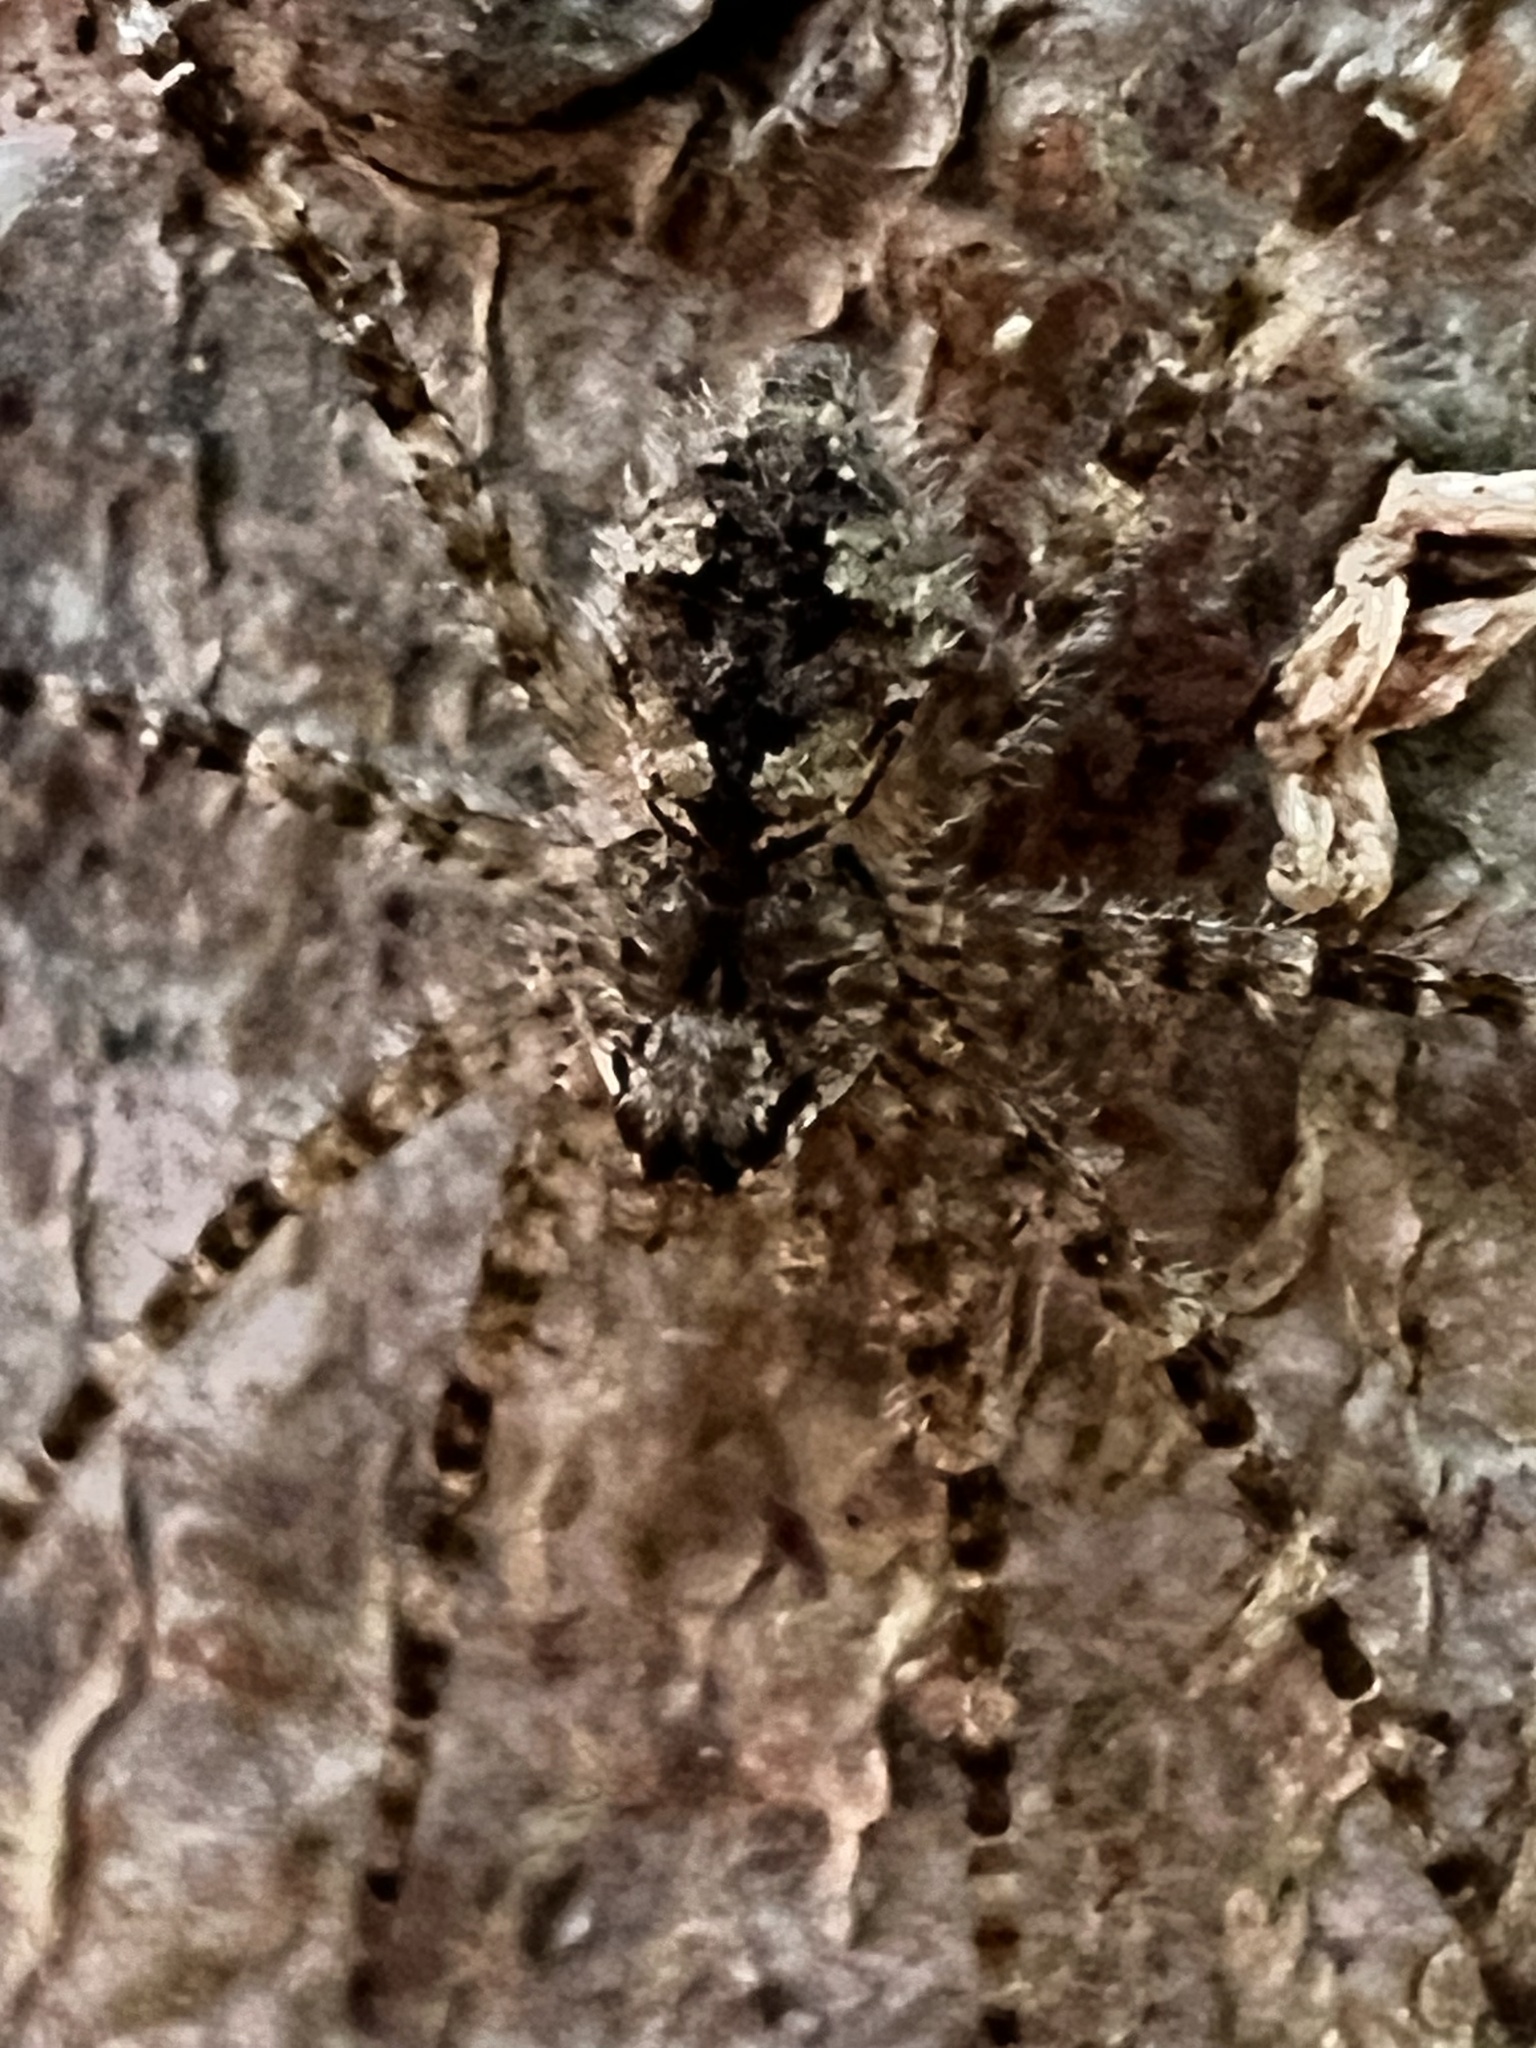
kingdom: Animalia
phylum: Arthropoda
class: Arachnida
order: Araneae
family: Pisauridae
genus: Dolomedes
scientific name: Dolomedes albineus
